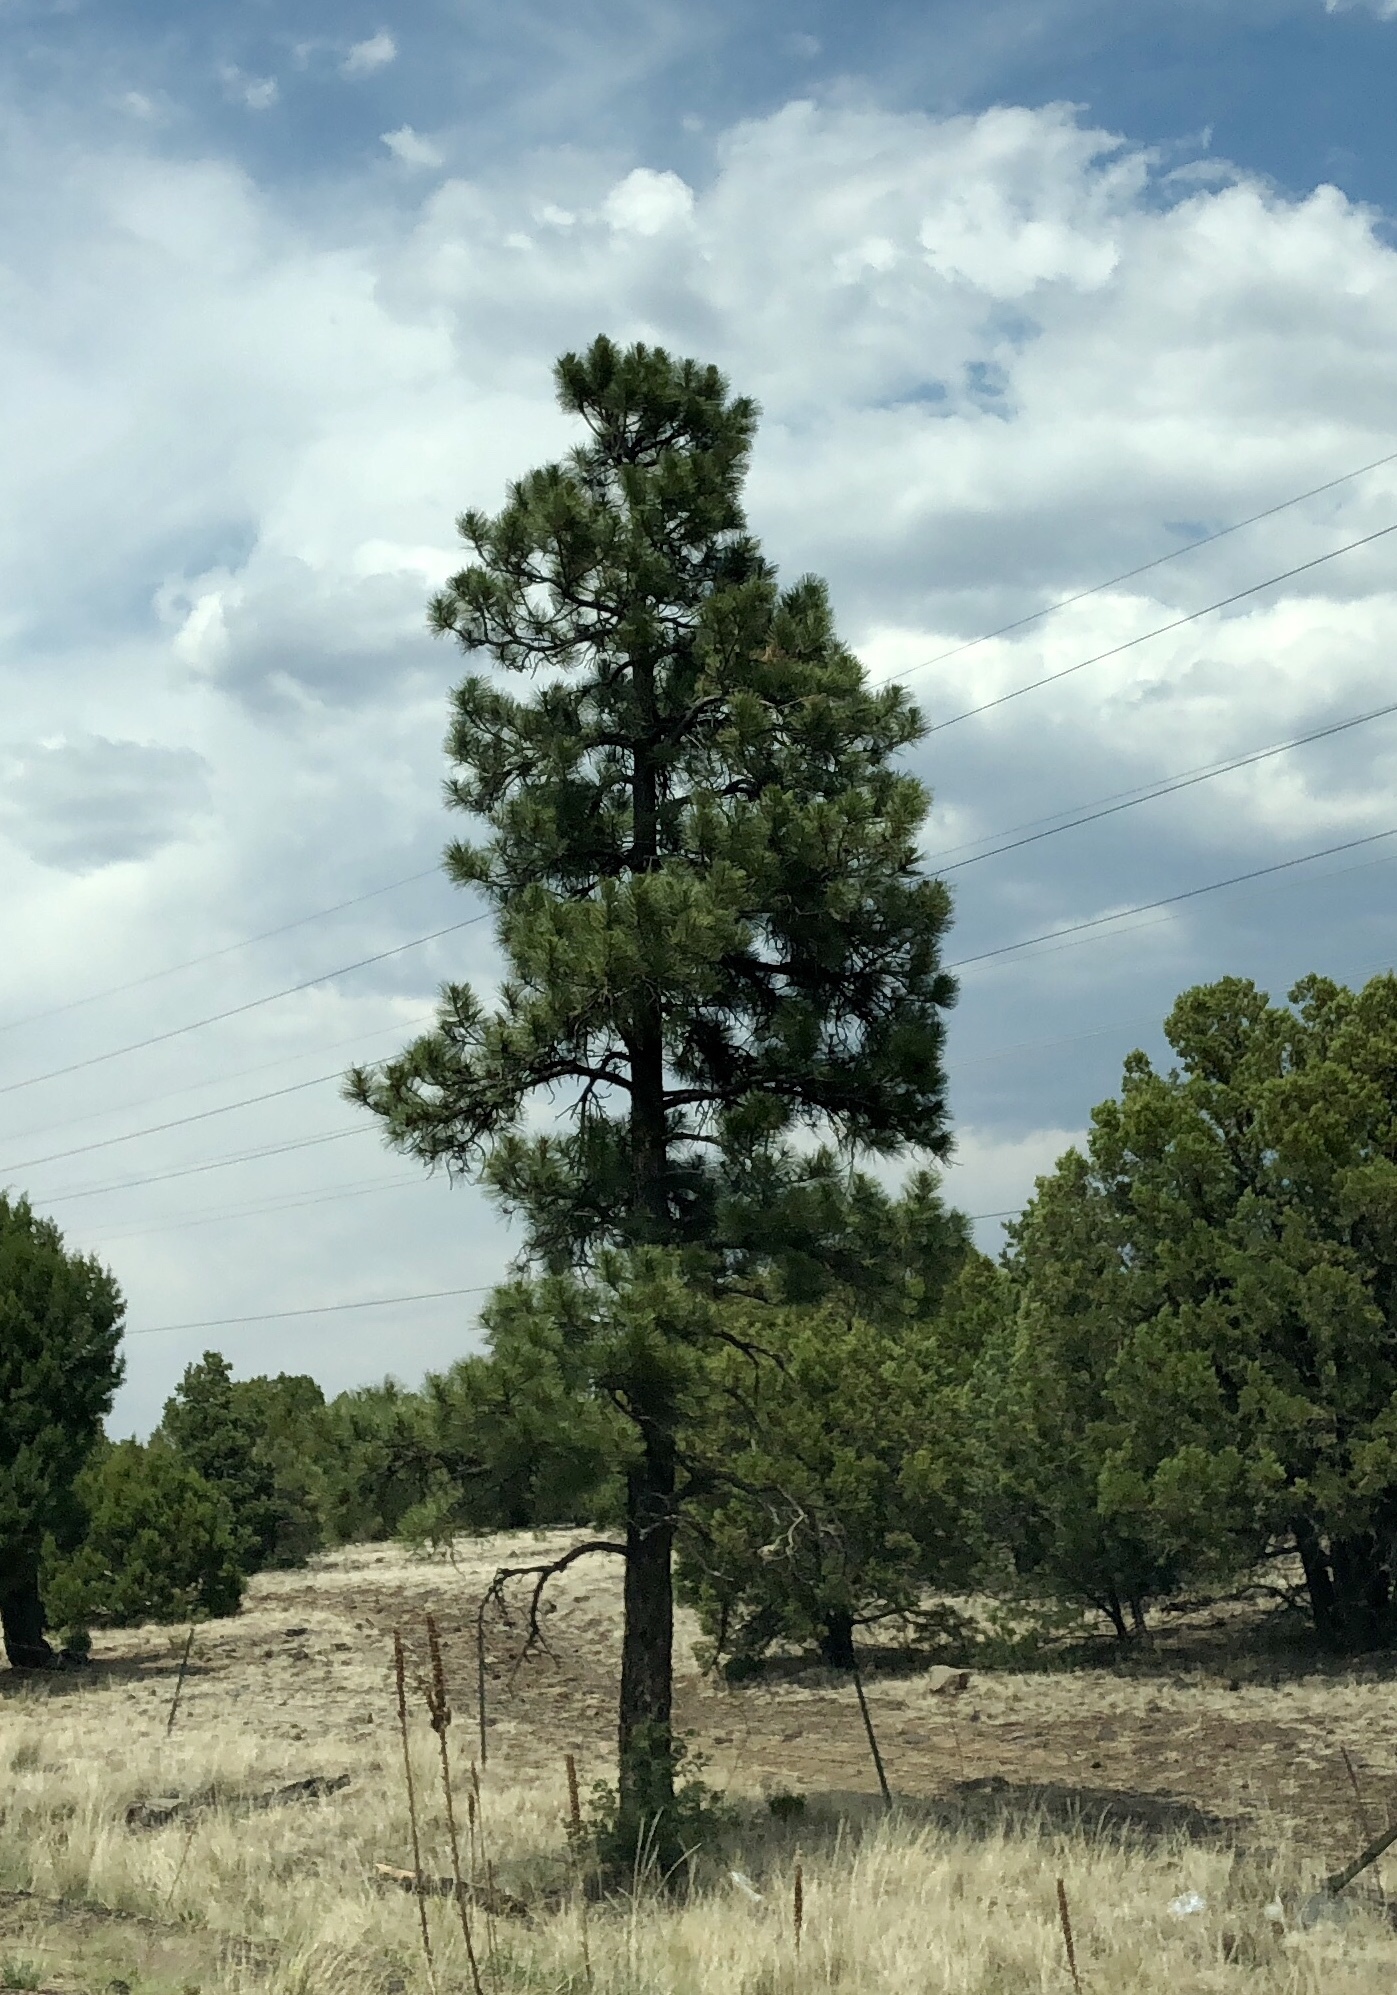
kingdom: Plantae
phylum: Tracheophyta
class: Pinopsida
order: Pinales
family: Pinaceae
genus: Pinus
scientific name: Pinus ponderosa
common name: Western yellow-pine
